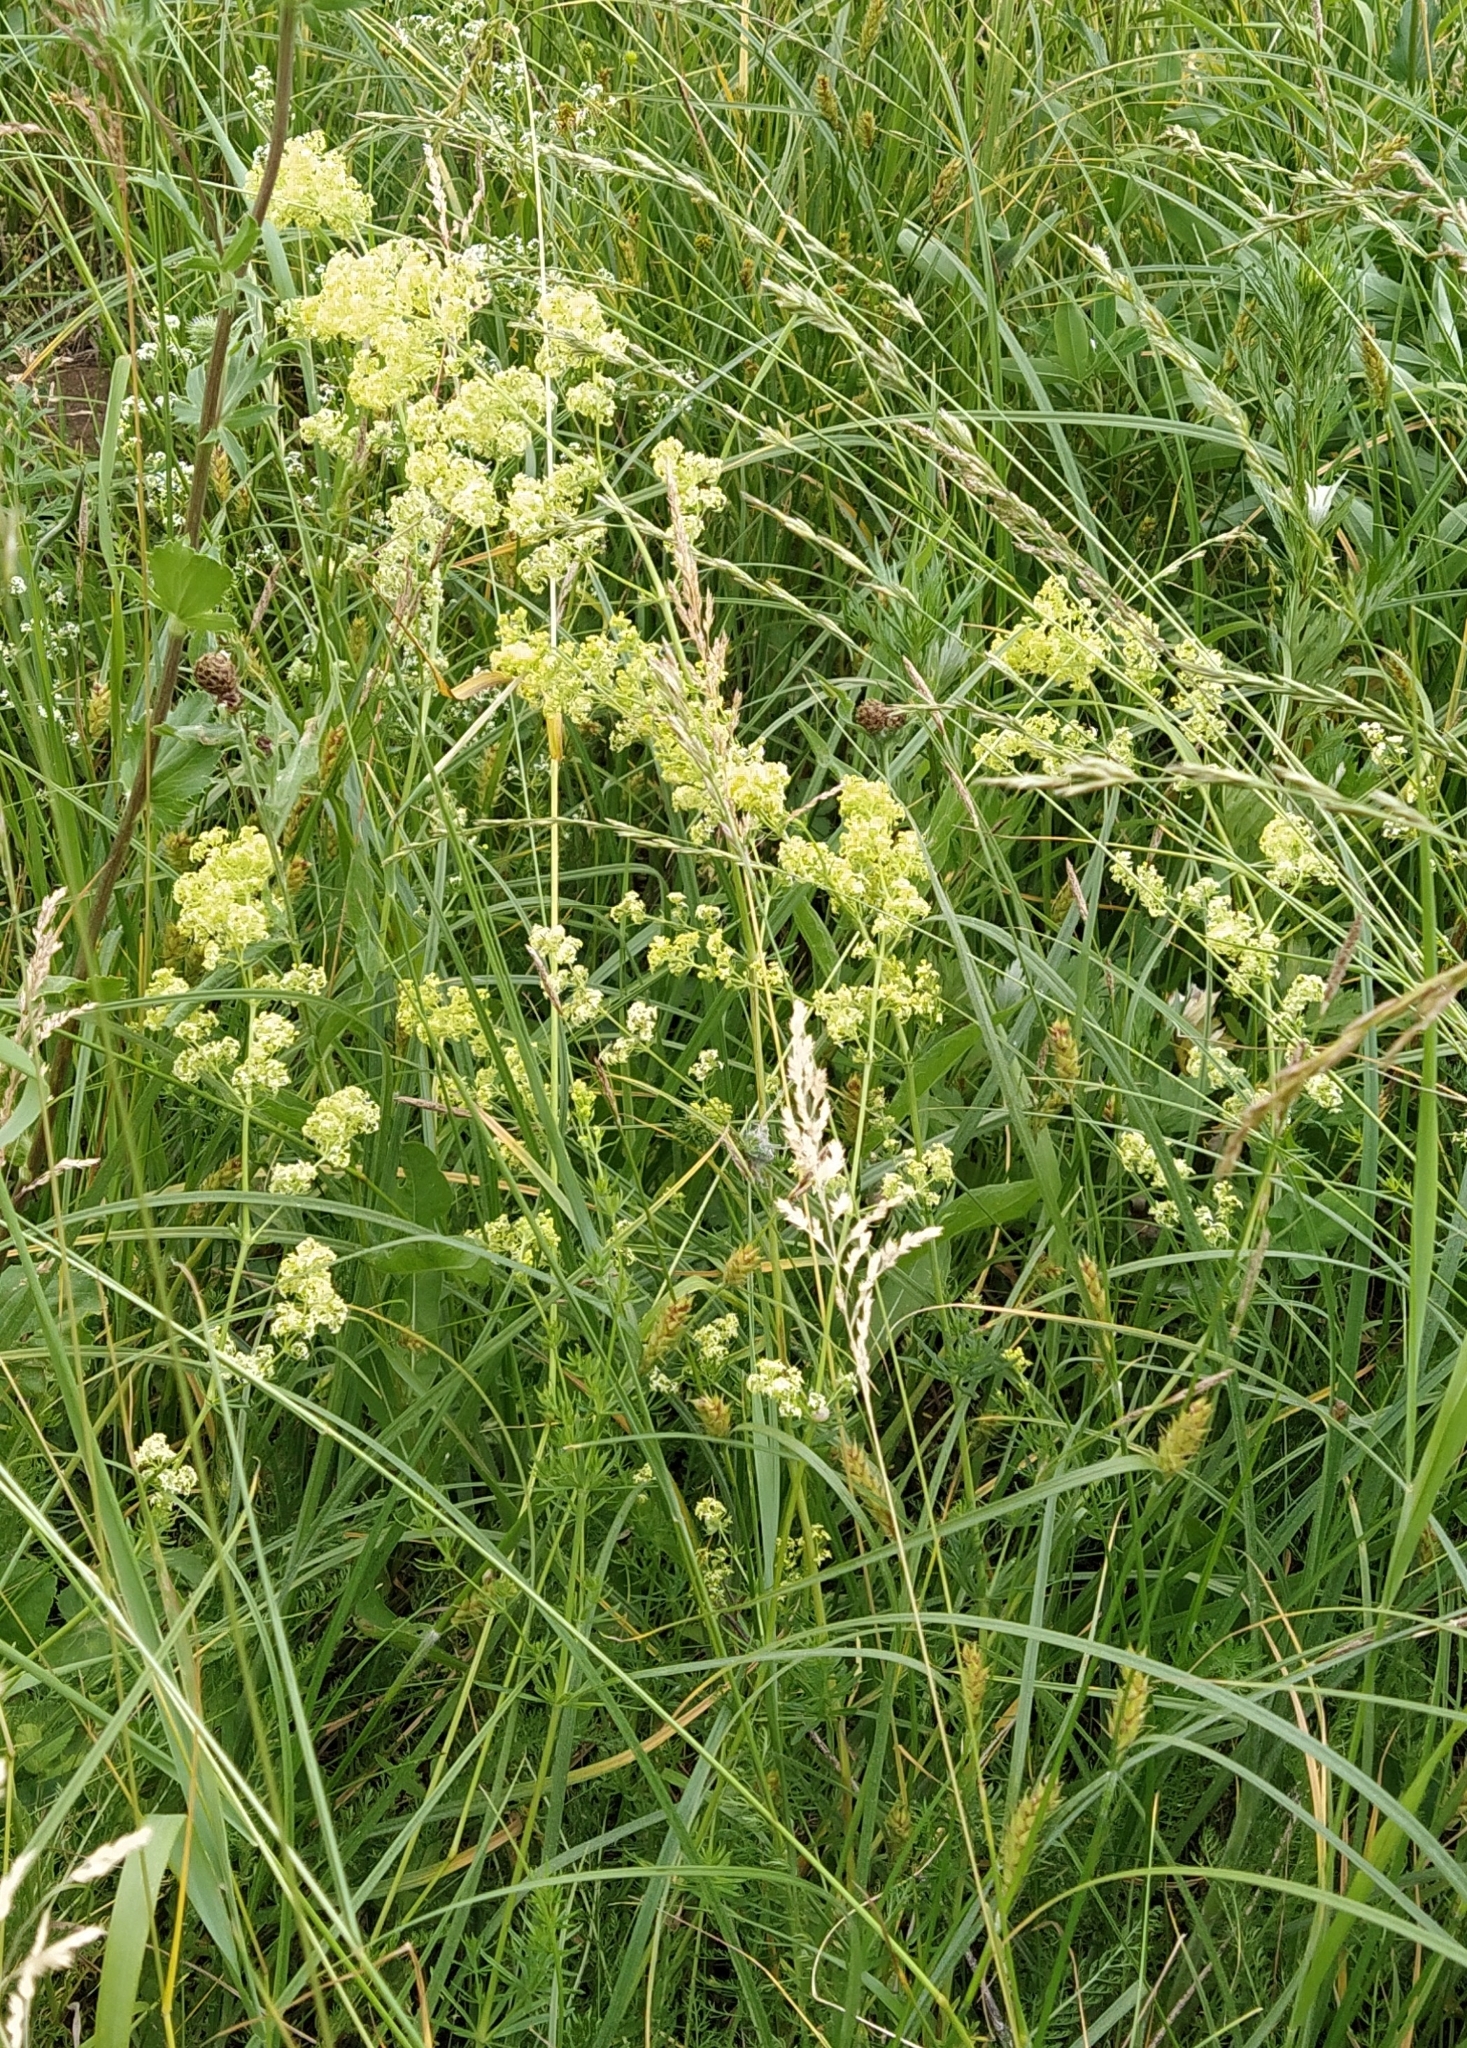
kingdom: Plantae
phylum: Tracheophyta
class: Magnoliopsida
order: Gentianales
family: Rubiaceae
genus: Galium
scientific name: Galium mollugo
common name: Hedge bedstraw
